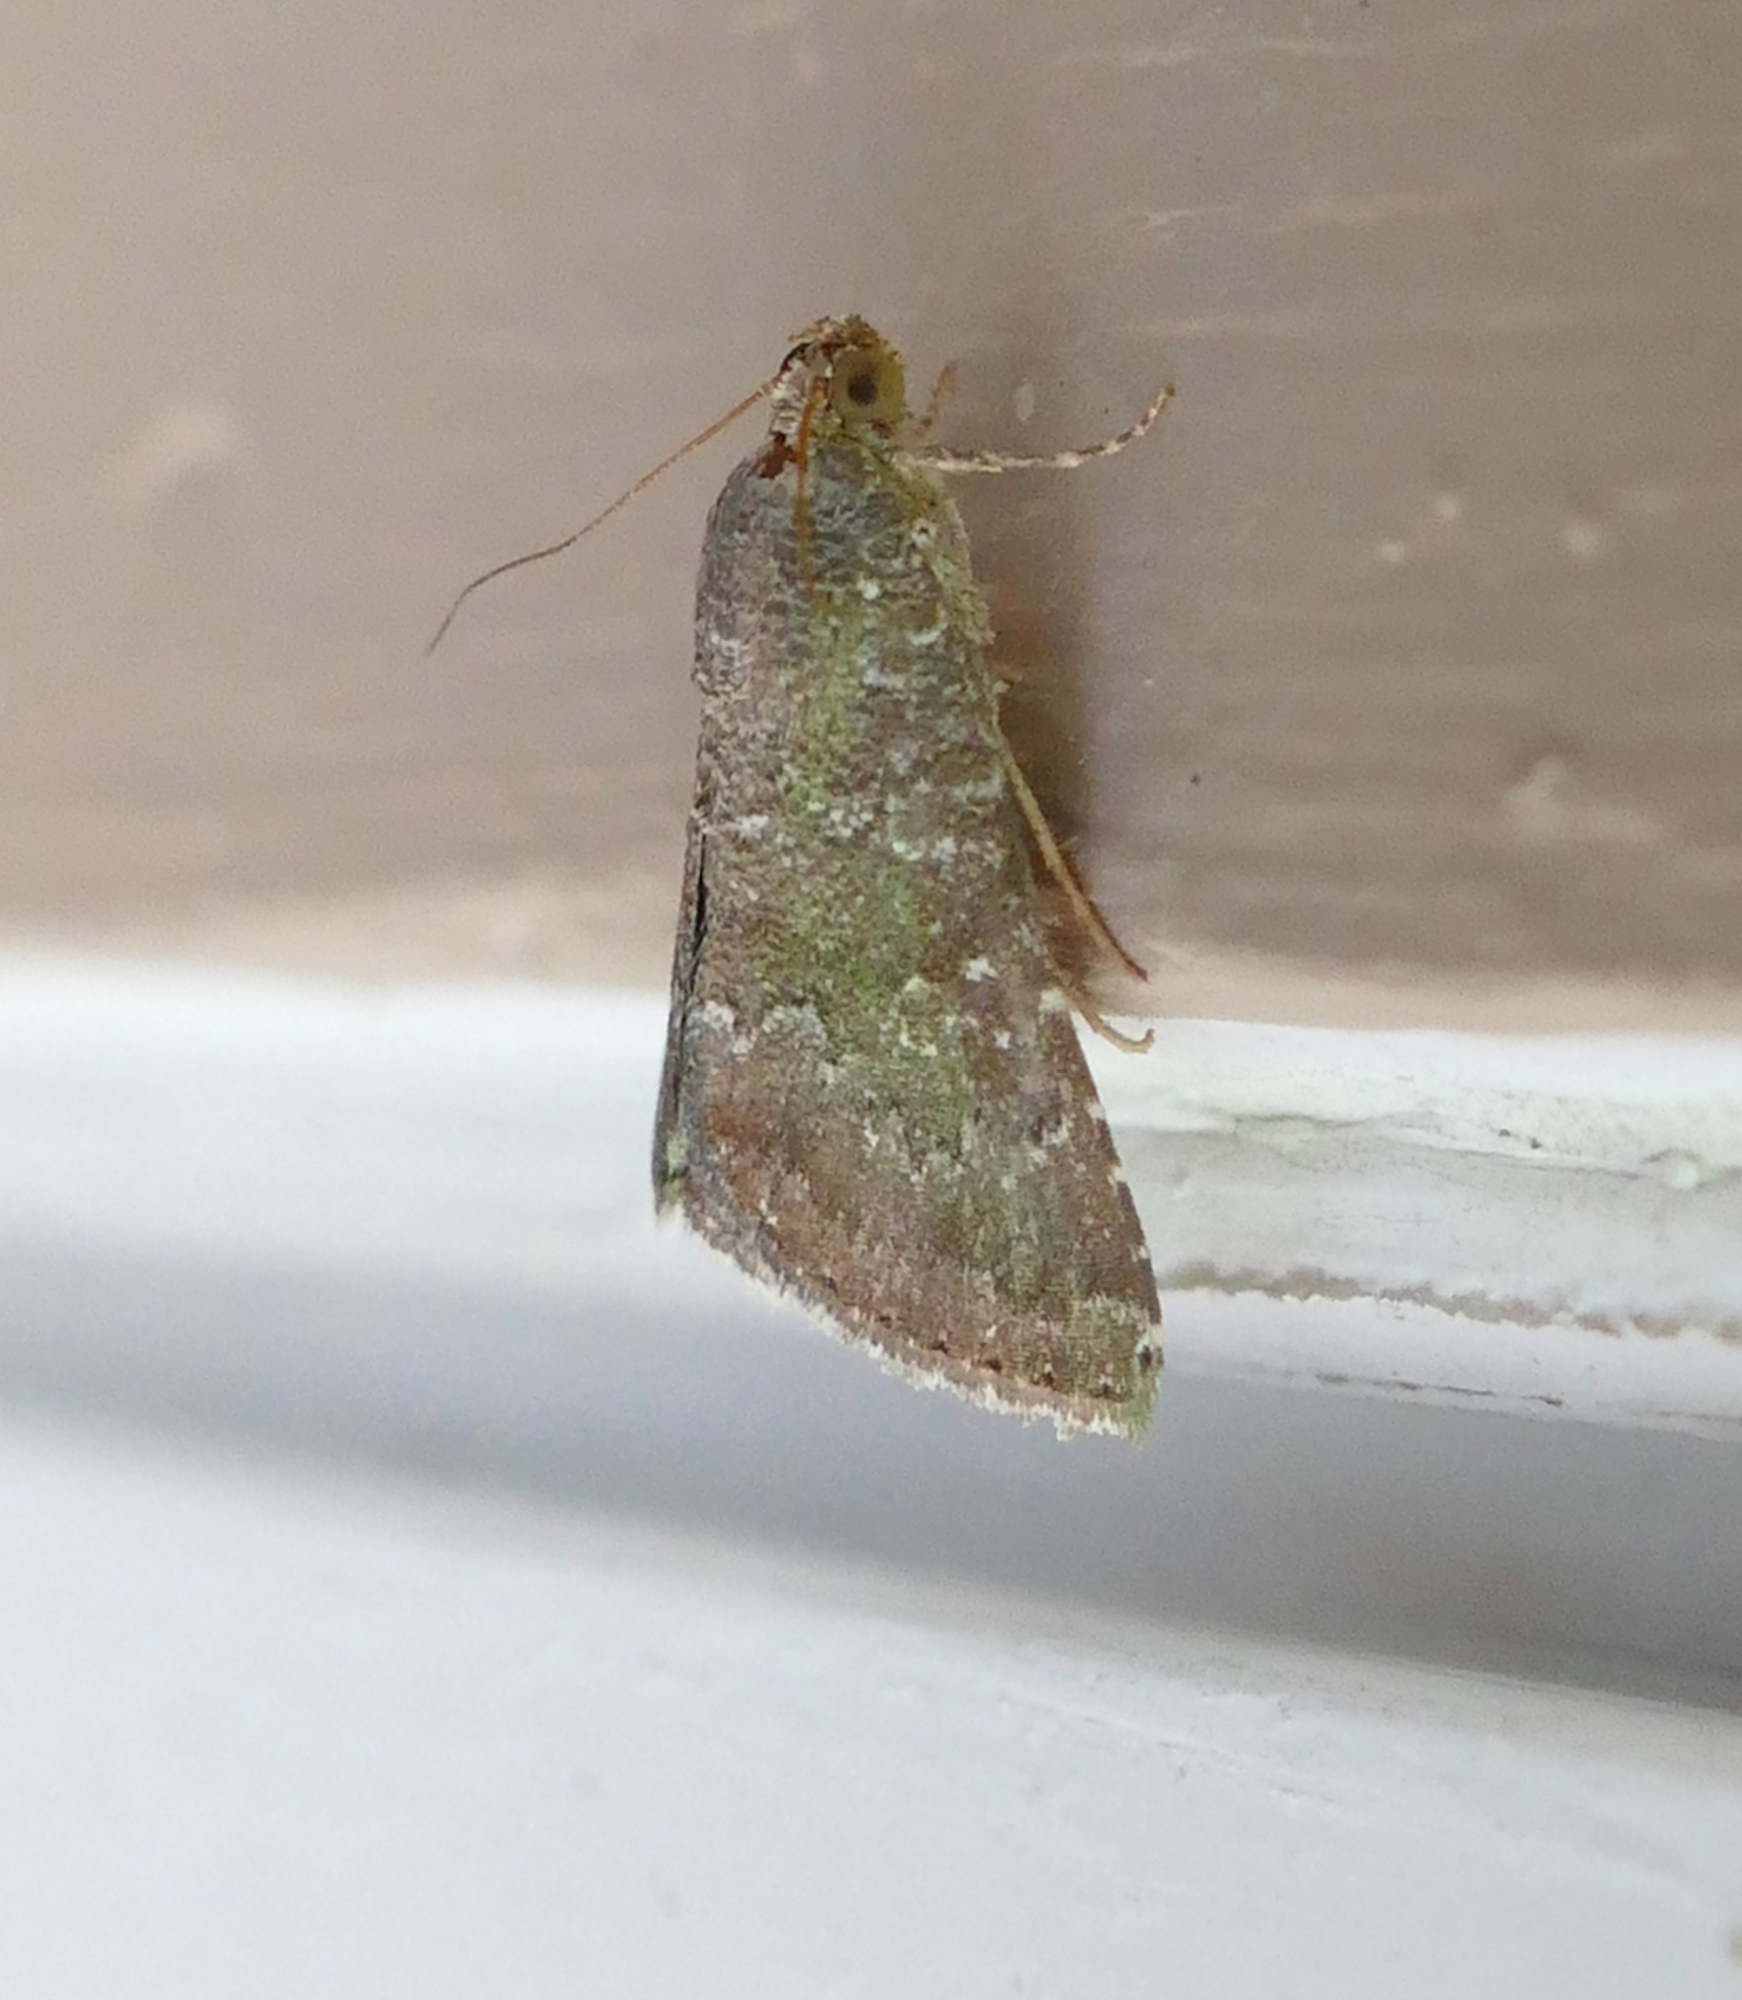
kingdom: Animalia
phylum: Arthropoda
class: Insecta
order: Lepidoptera
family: Noctuidae
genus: Amyna
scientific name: Amyna stricta
